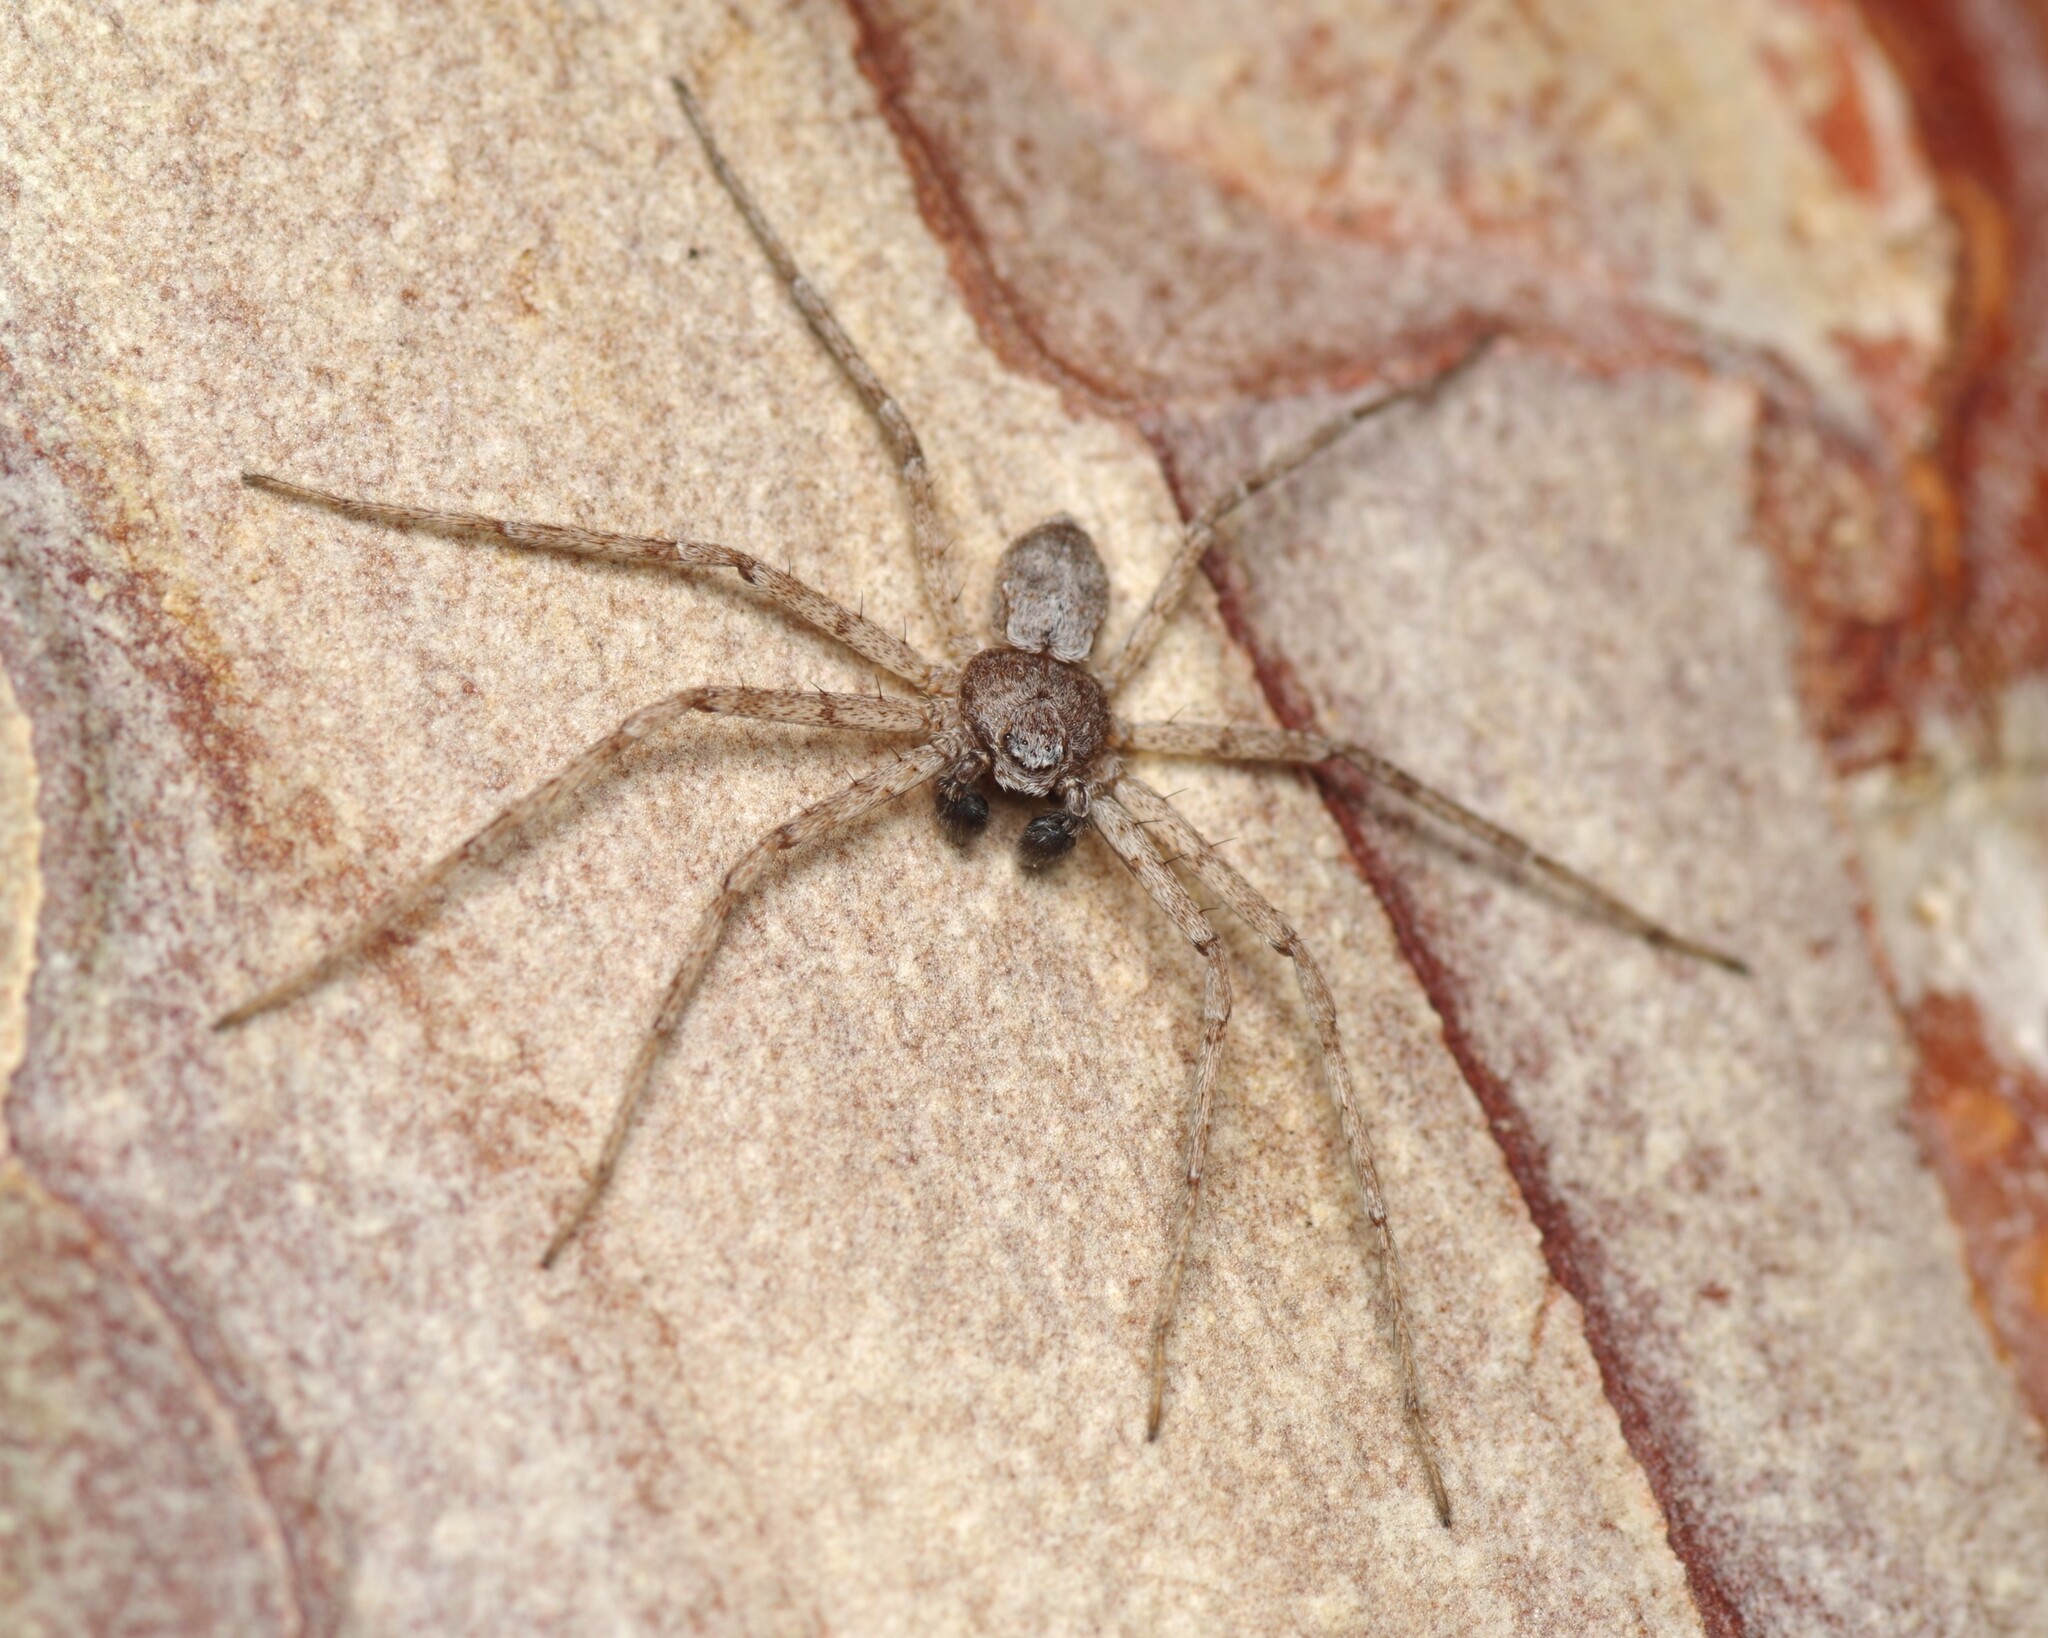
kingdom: Animalia
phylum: Arthropoda
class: Arachnida
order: Araneae
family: Philodromidae
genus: Philodromus
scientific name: Philodromus parietalis
